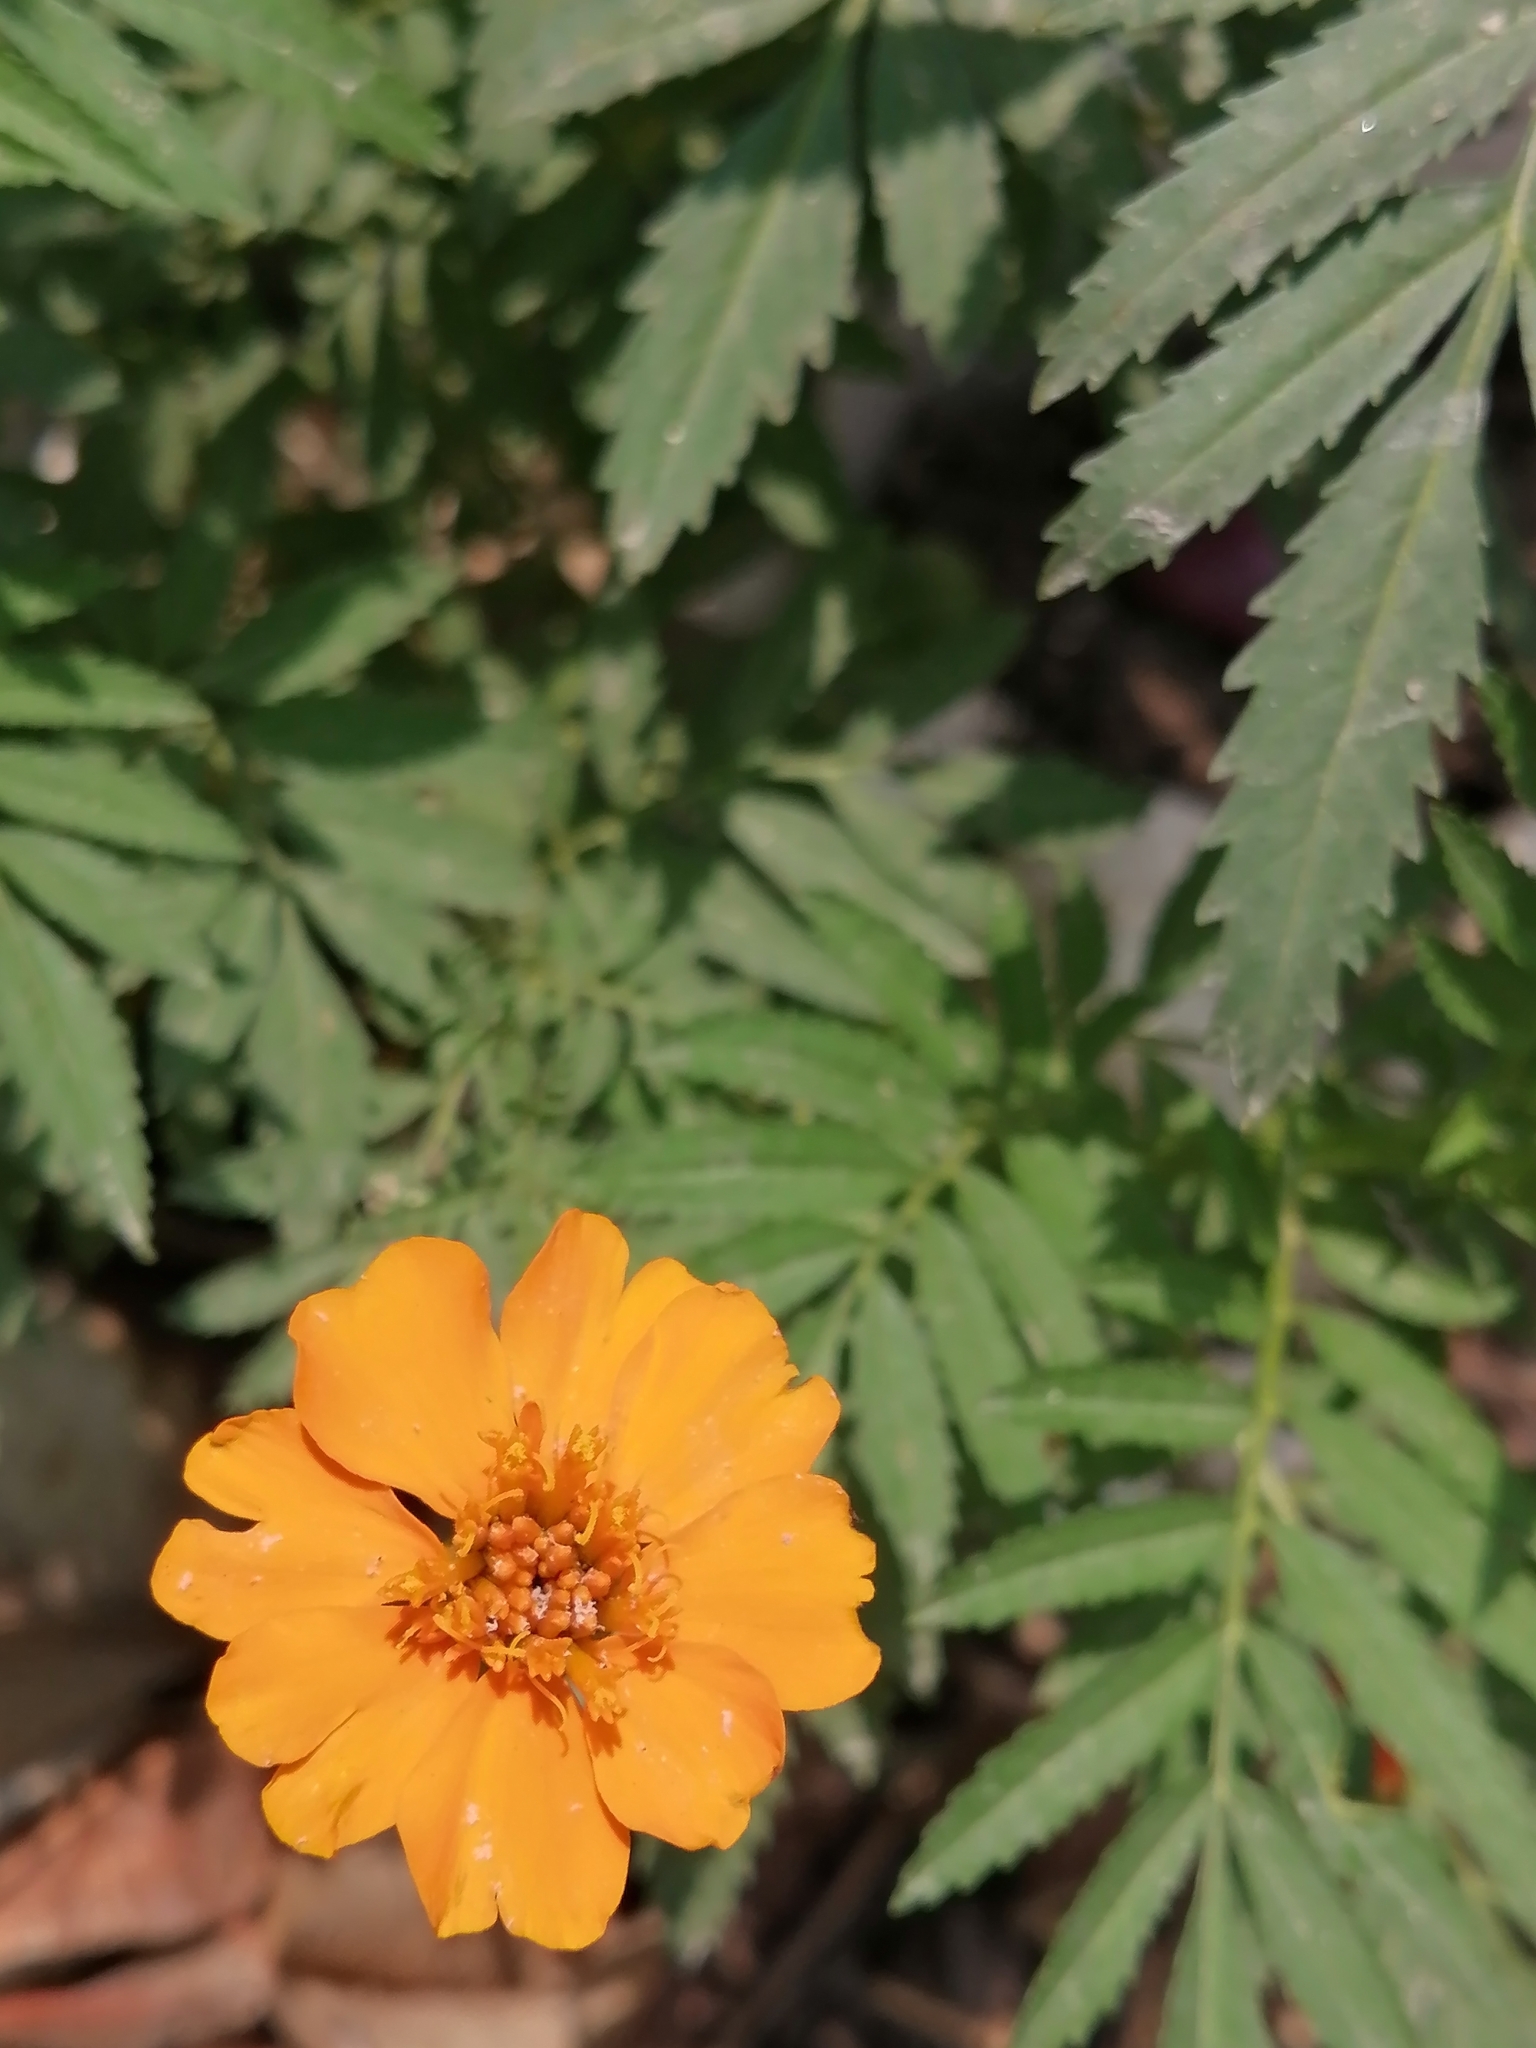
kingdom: Plantae
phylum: Tracheophyta
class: Magnoliopsida
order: Asterales
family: Asteraceae
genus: Tagetes
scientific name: Tagetes erecta
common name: African marigold
